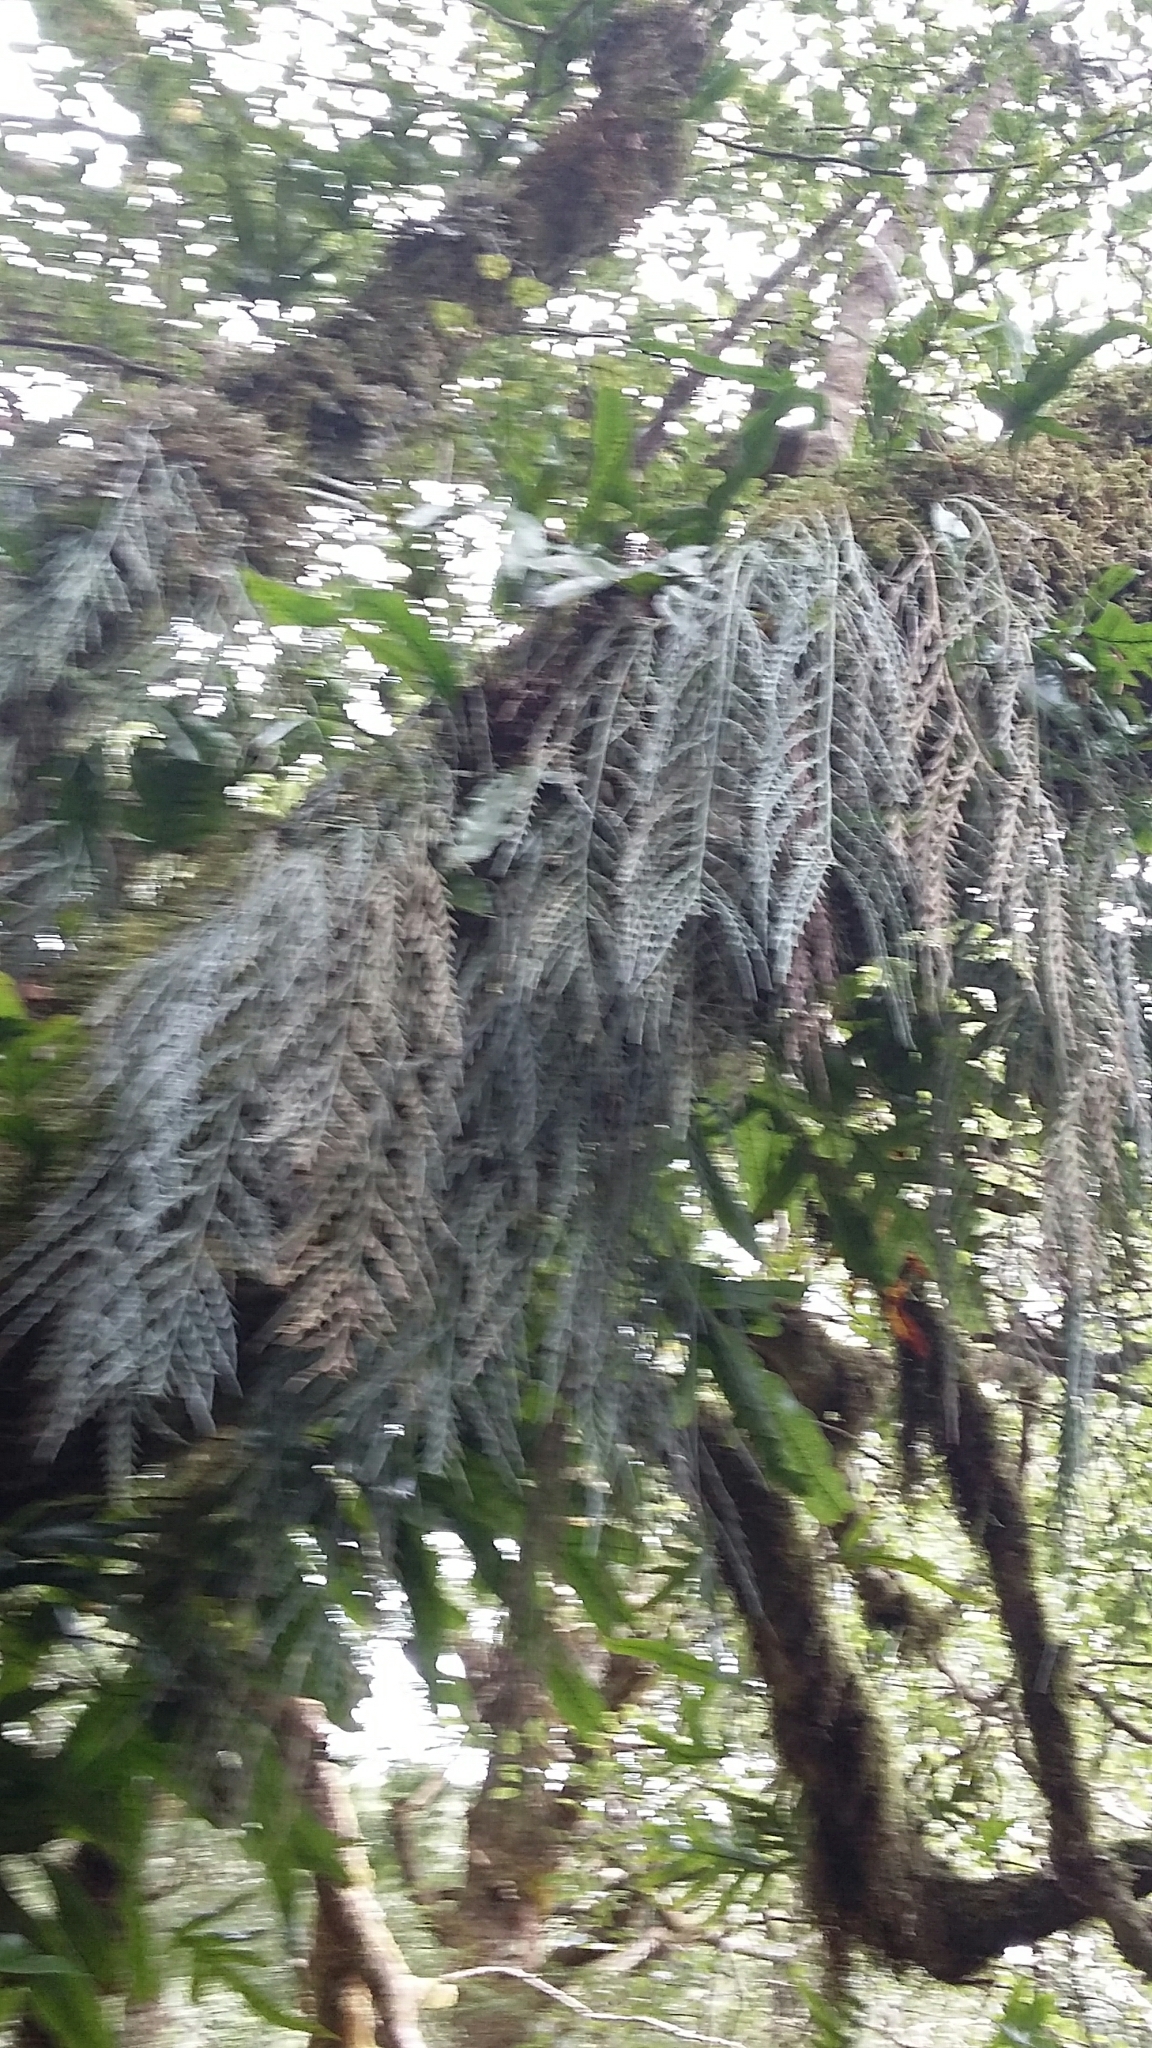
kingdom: Plantae
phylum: Tracheophyta
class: Polypodiopsida
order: Polypodiales
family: Aspleniaceae
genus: Asplenium
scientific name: Asplenium flaccidum
